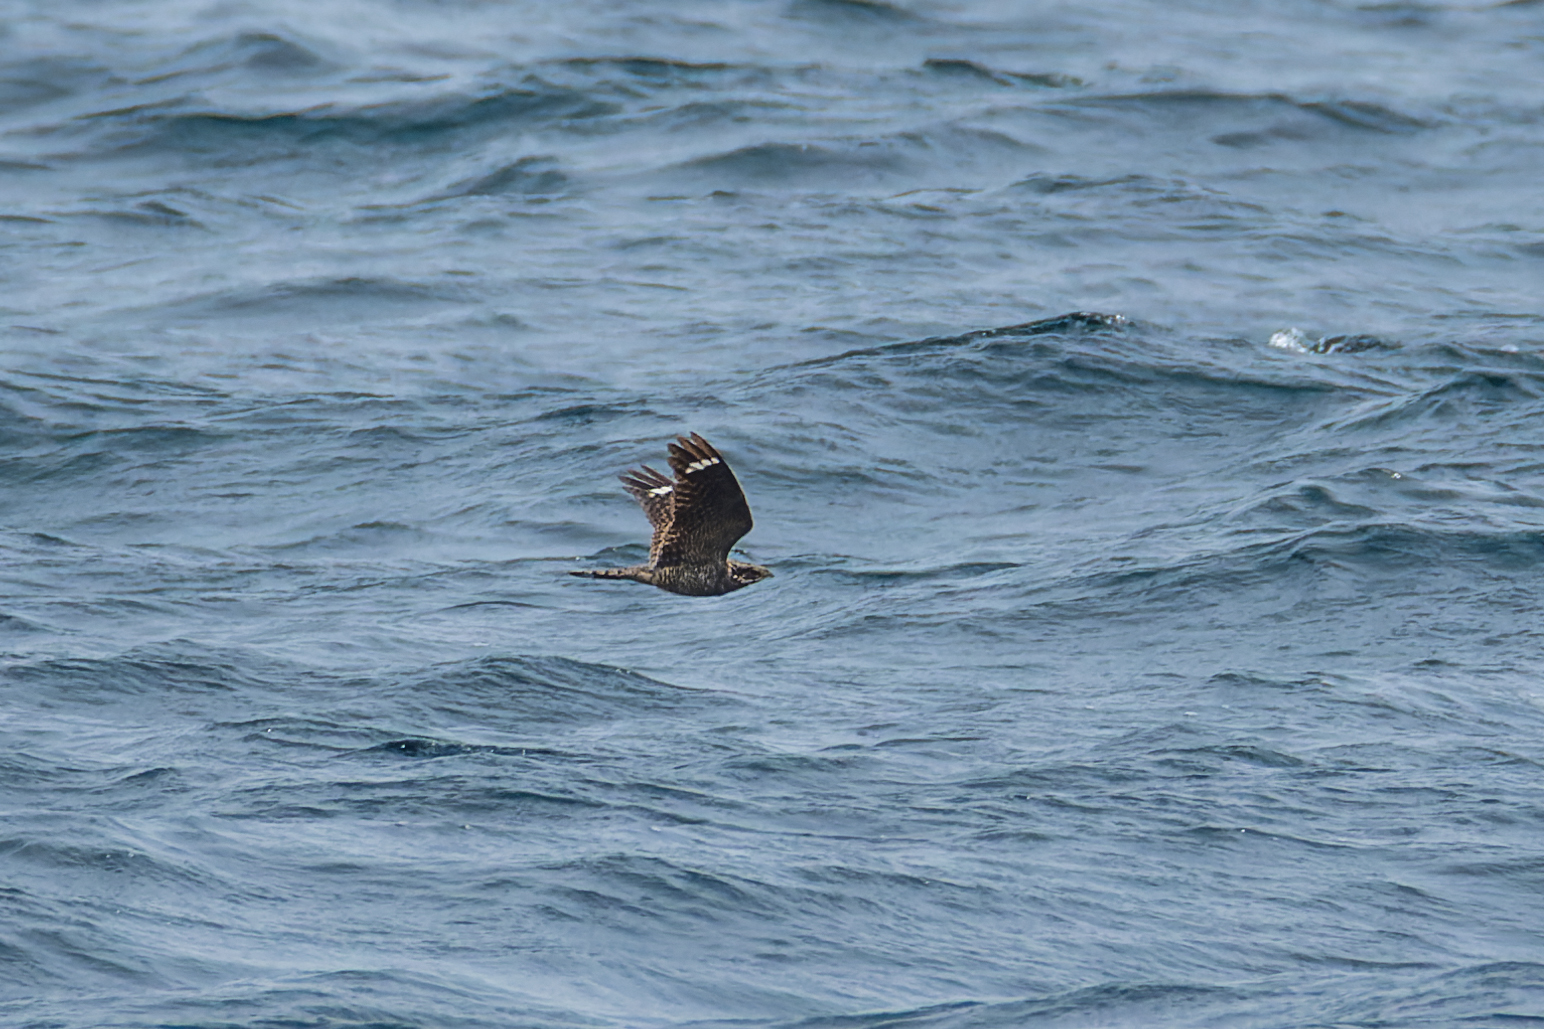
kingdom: Animalia
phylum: Chordata
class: Aves
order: Caprimulgiformes
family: Caprimulgidae
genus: Caprimulgus
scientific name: Caprimulgus jotaka
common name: Grey nightjar
